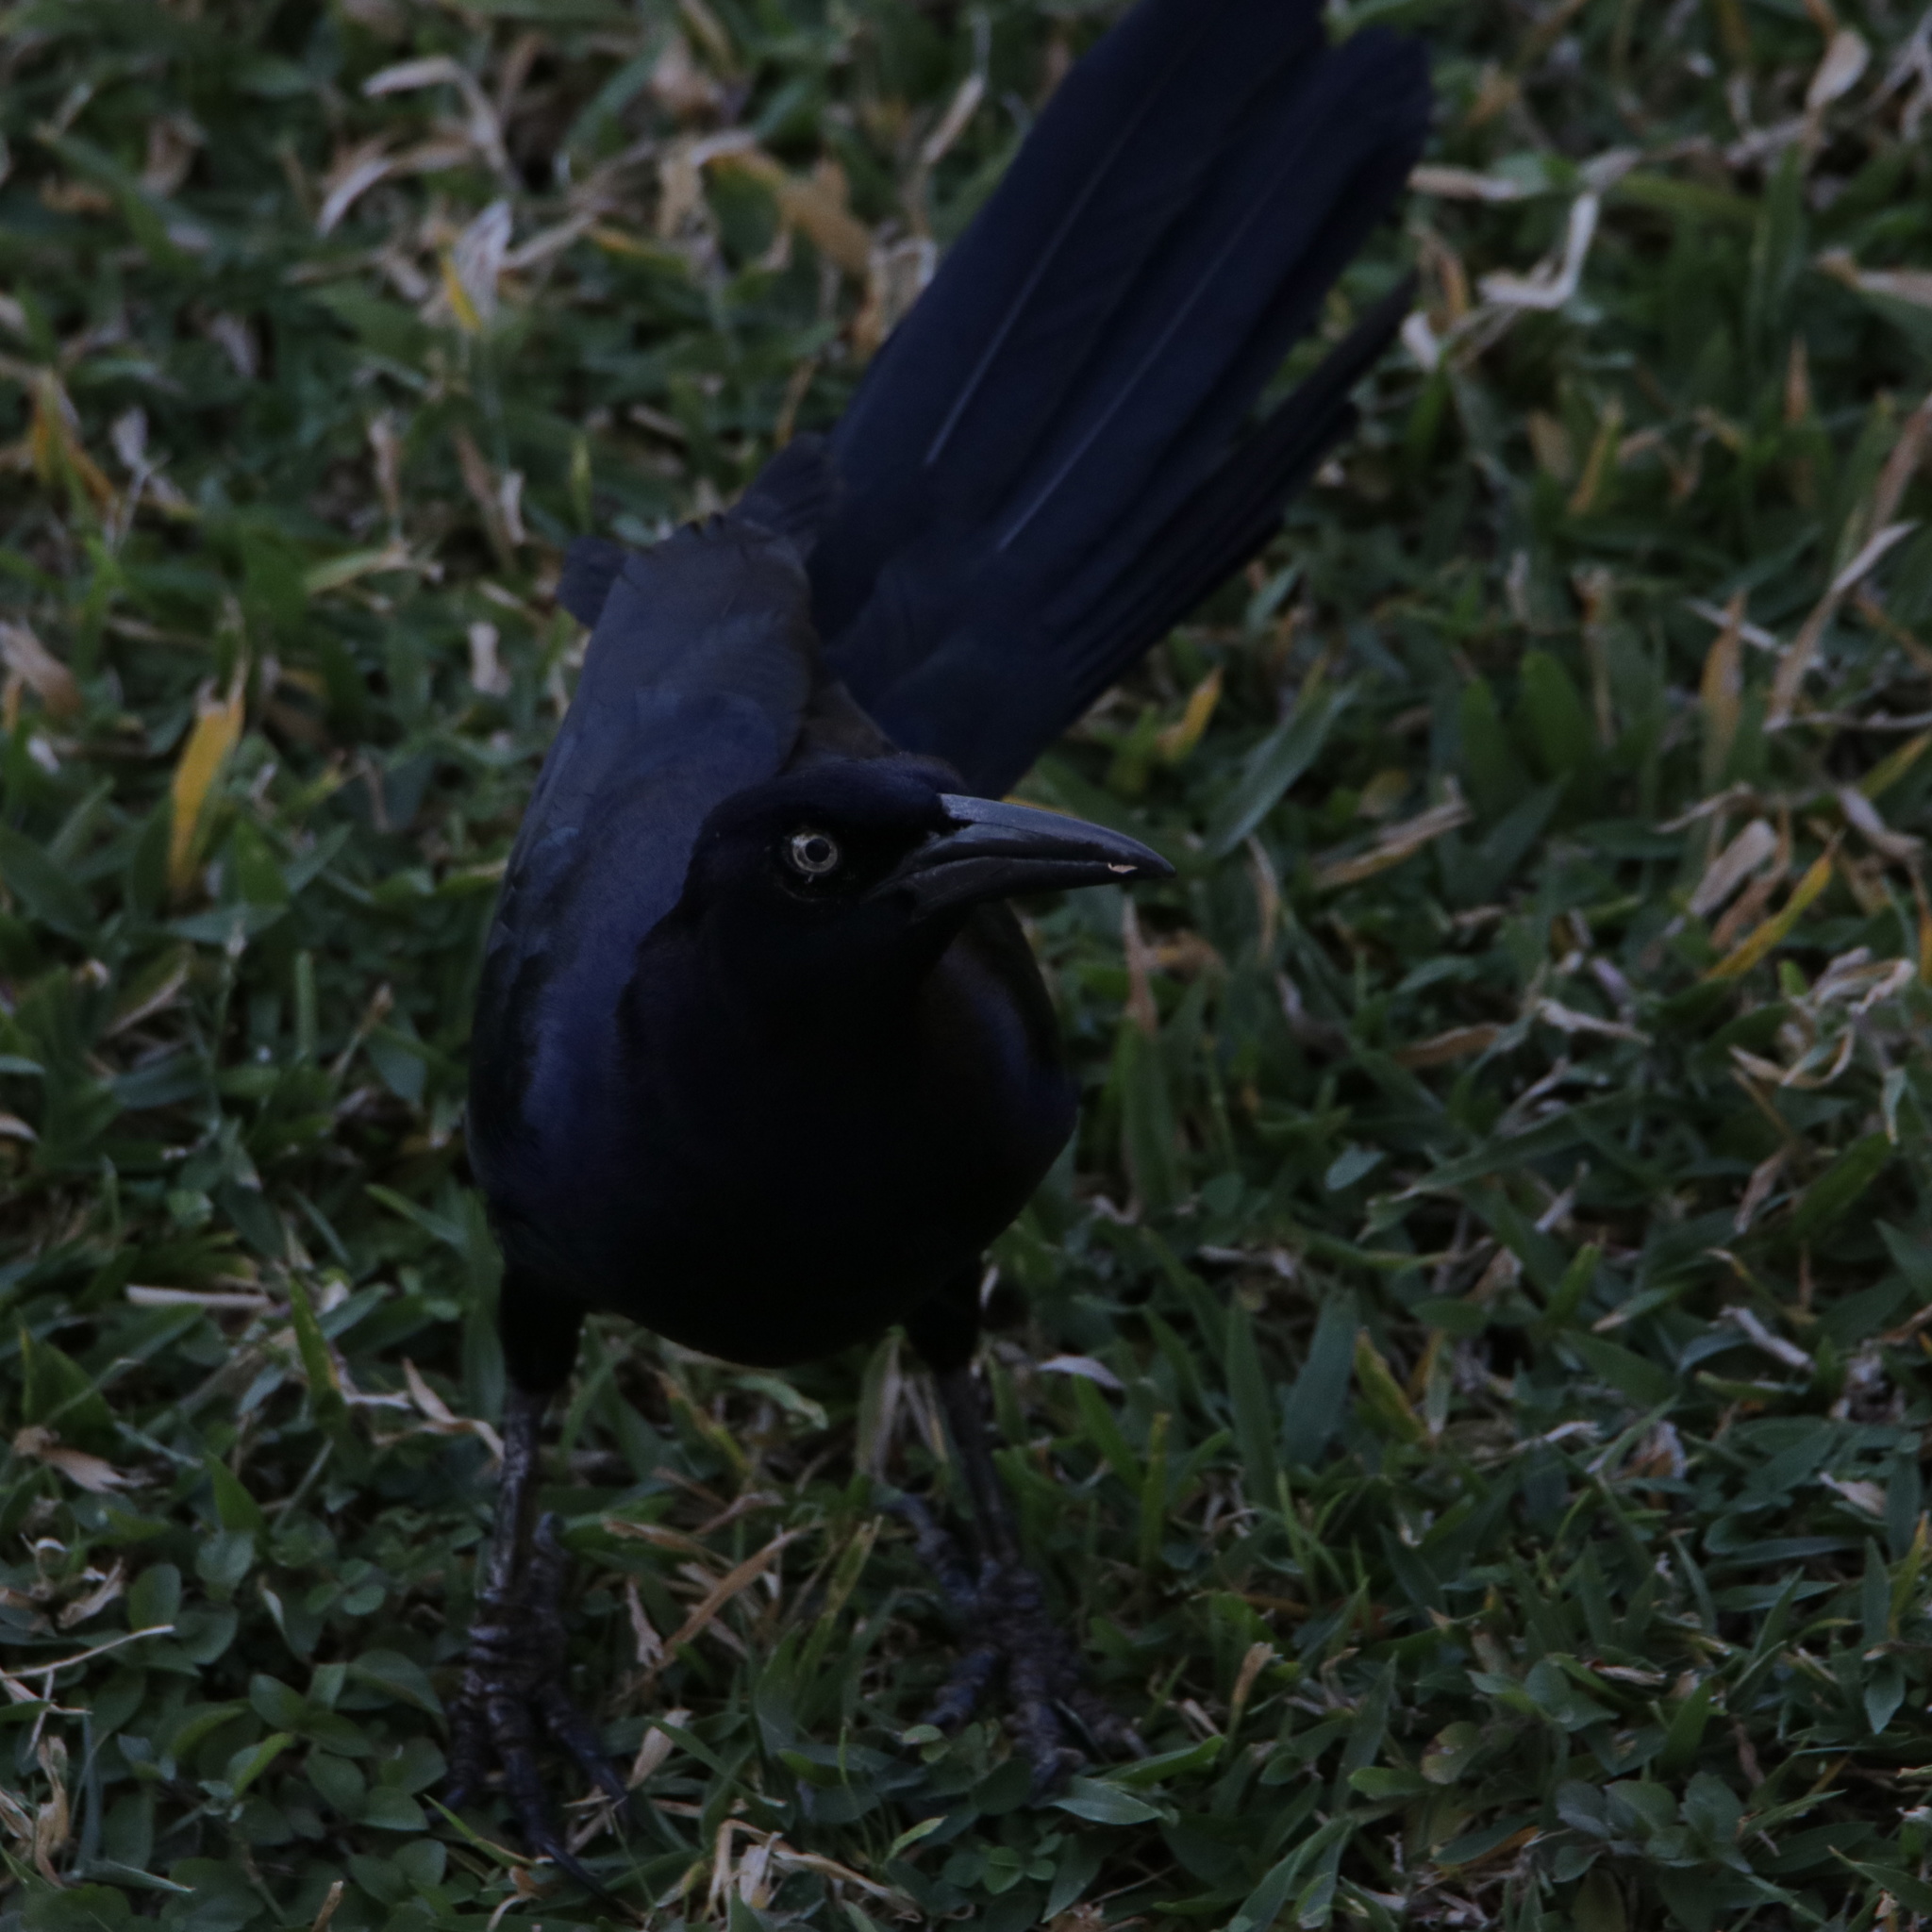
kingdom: Animalia
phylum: Chordata
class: Aves
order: Passeriformes
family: Icteridae
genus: Quiscalus
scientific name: Quiscalus mexicanus
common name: Great-tailed grackle
